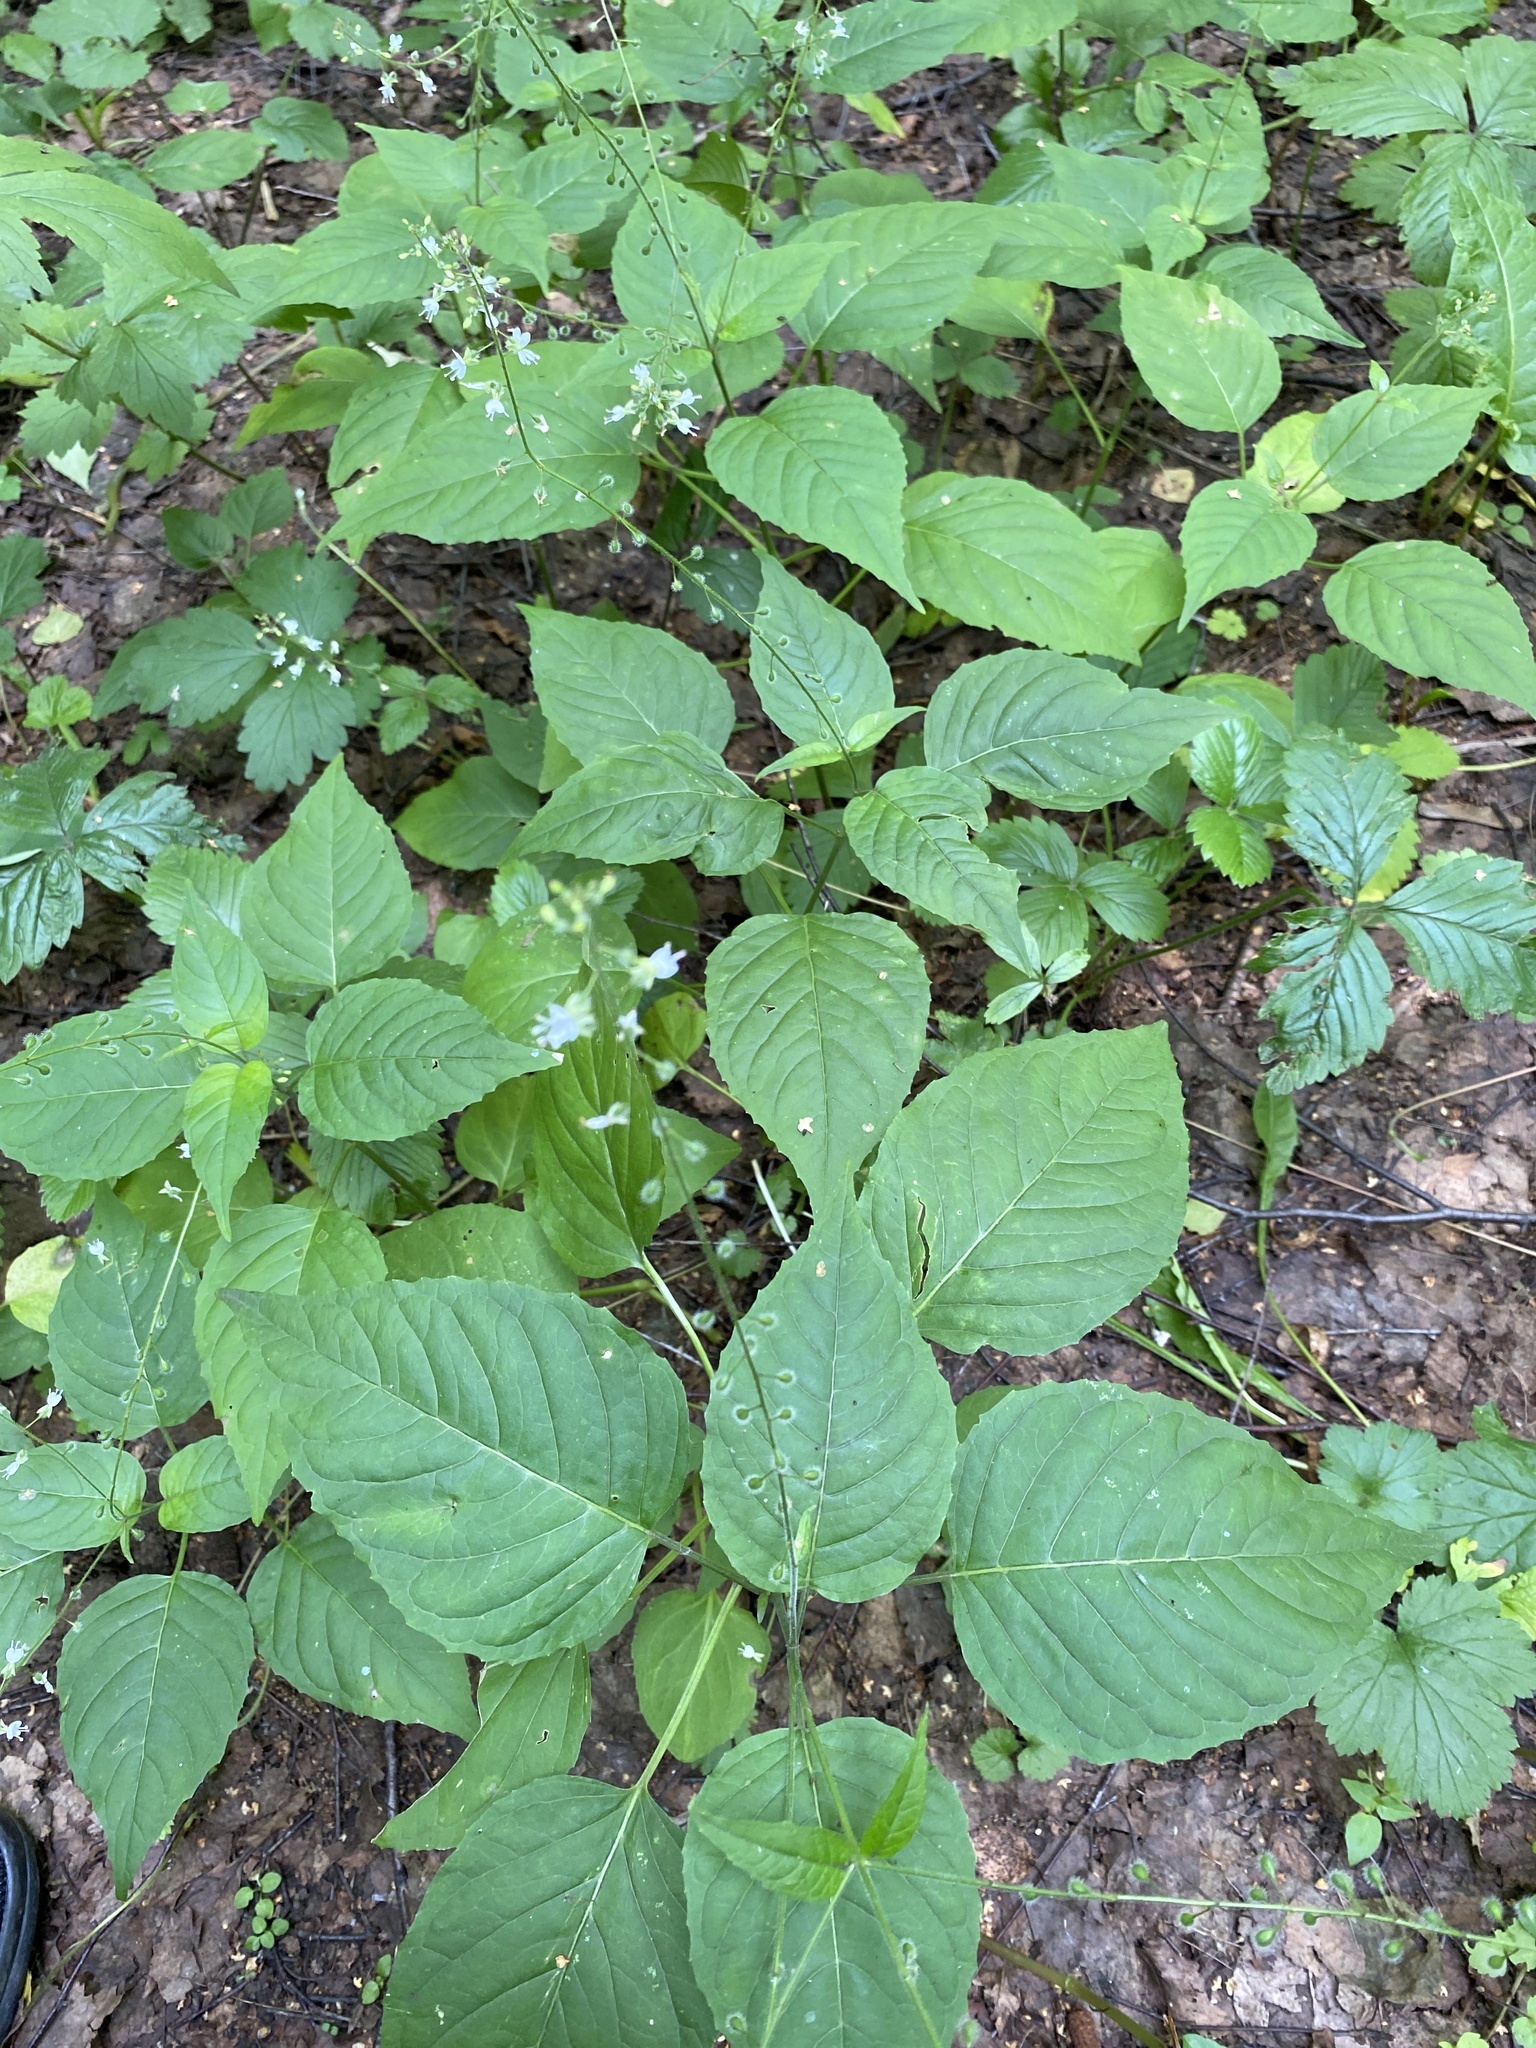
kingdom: Plantae
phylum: Tracheophyta
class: Magnoliopsida
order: Myrtales
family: Onagraceae
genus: Circaea
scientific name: Circaea lutetiana
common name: Enchanter's-nightshade
